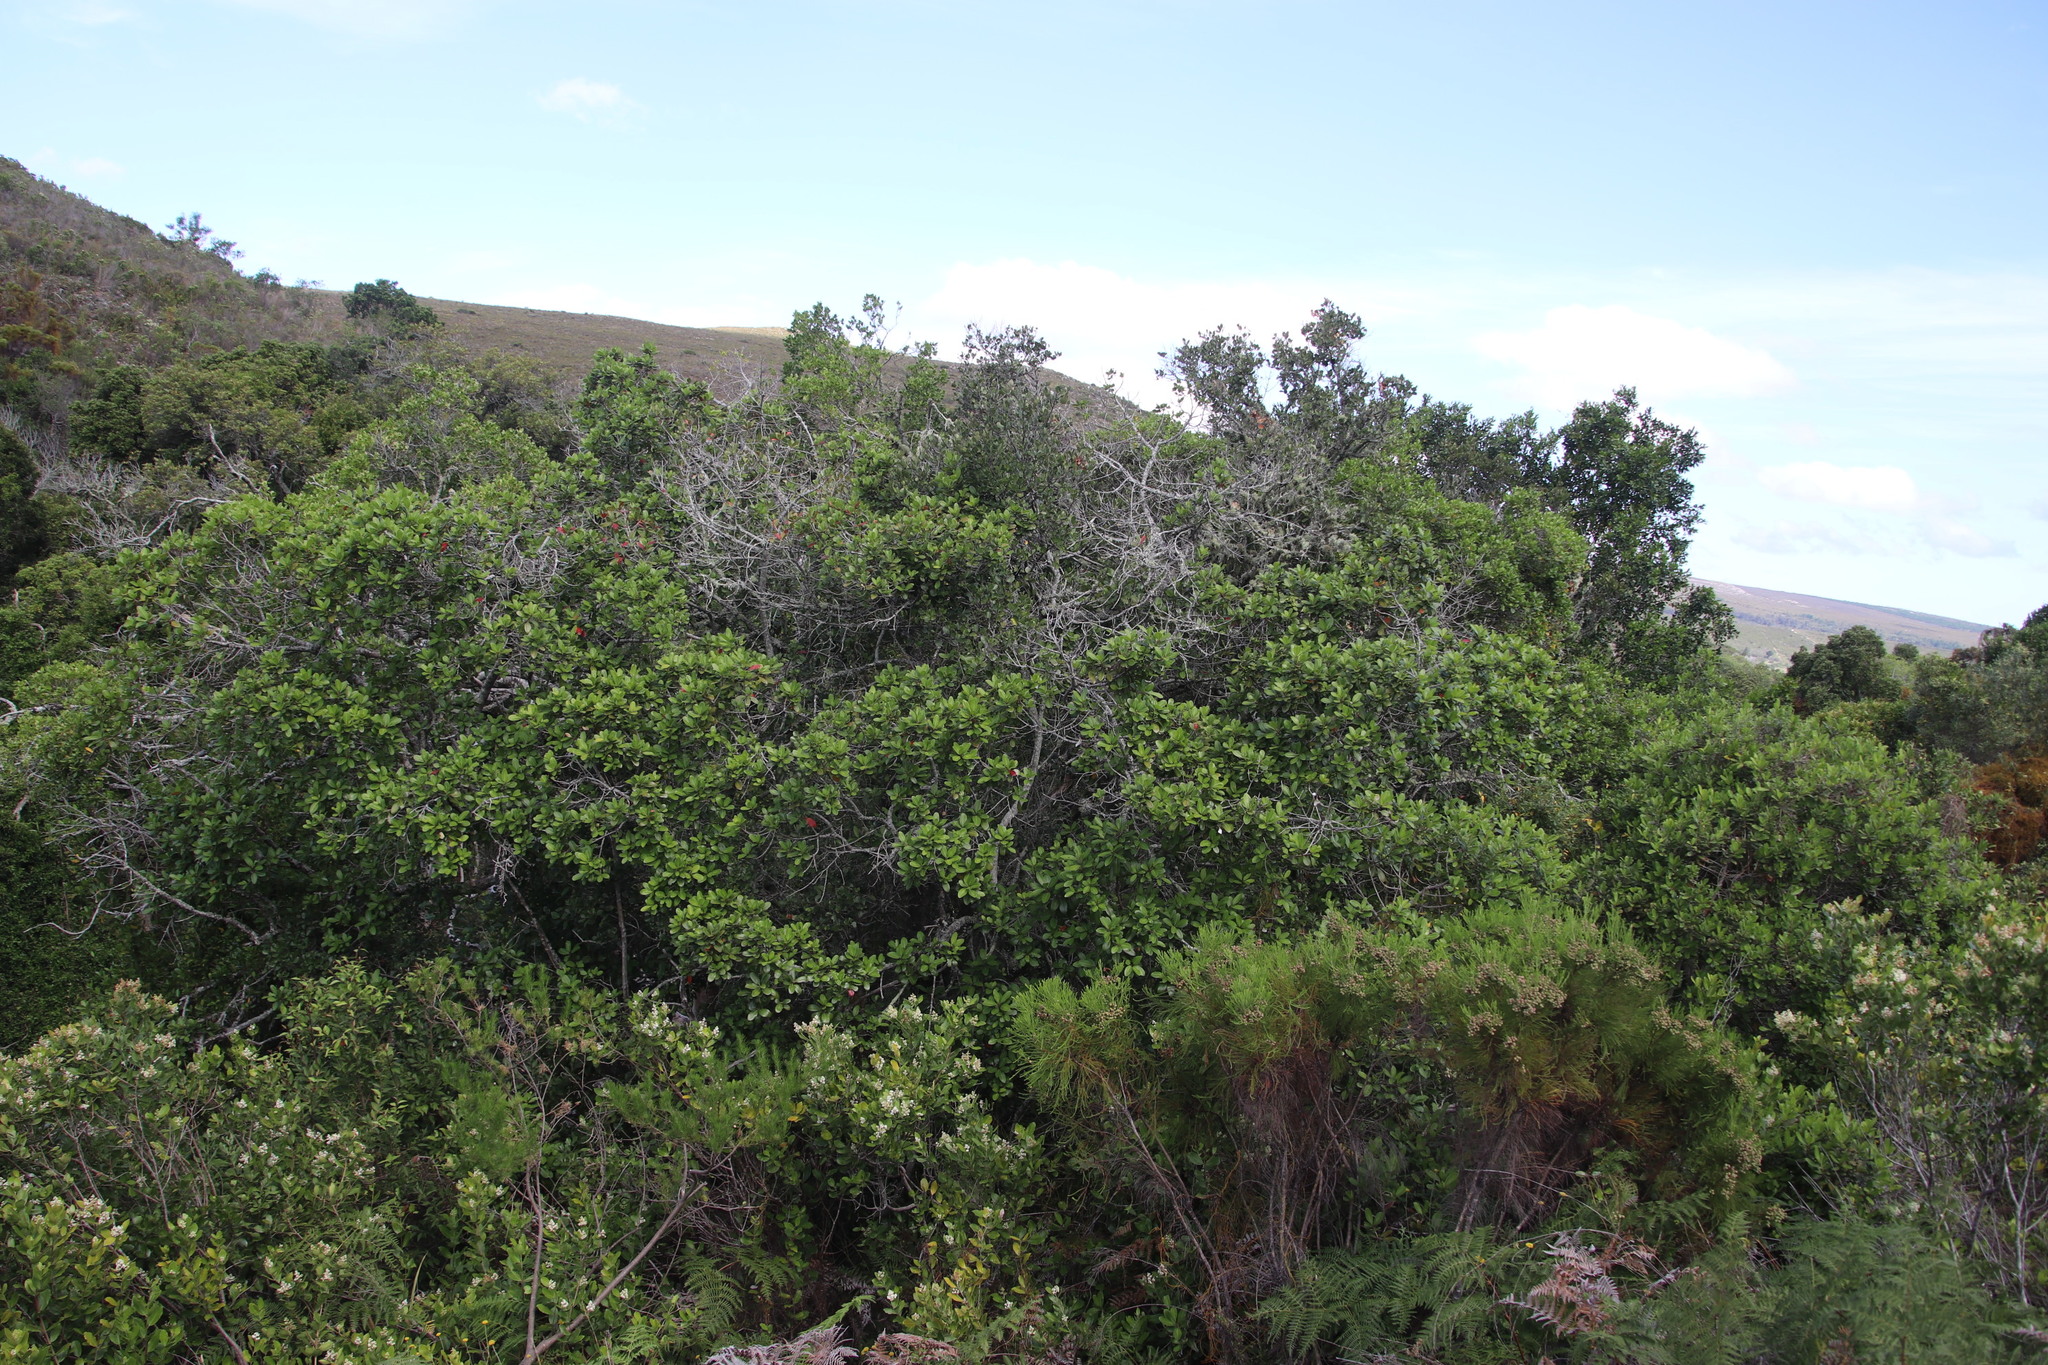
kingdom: Plantae
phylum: Tracheophyta
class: Magnoliopsida
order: Ericales
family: Sapotaceae
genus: Sideroxylon
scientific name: Sideroxylon inerme
